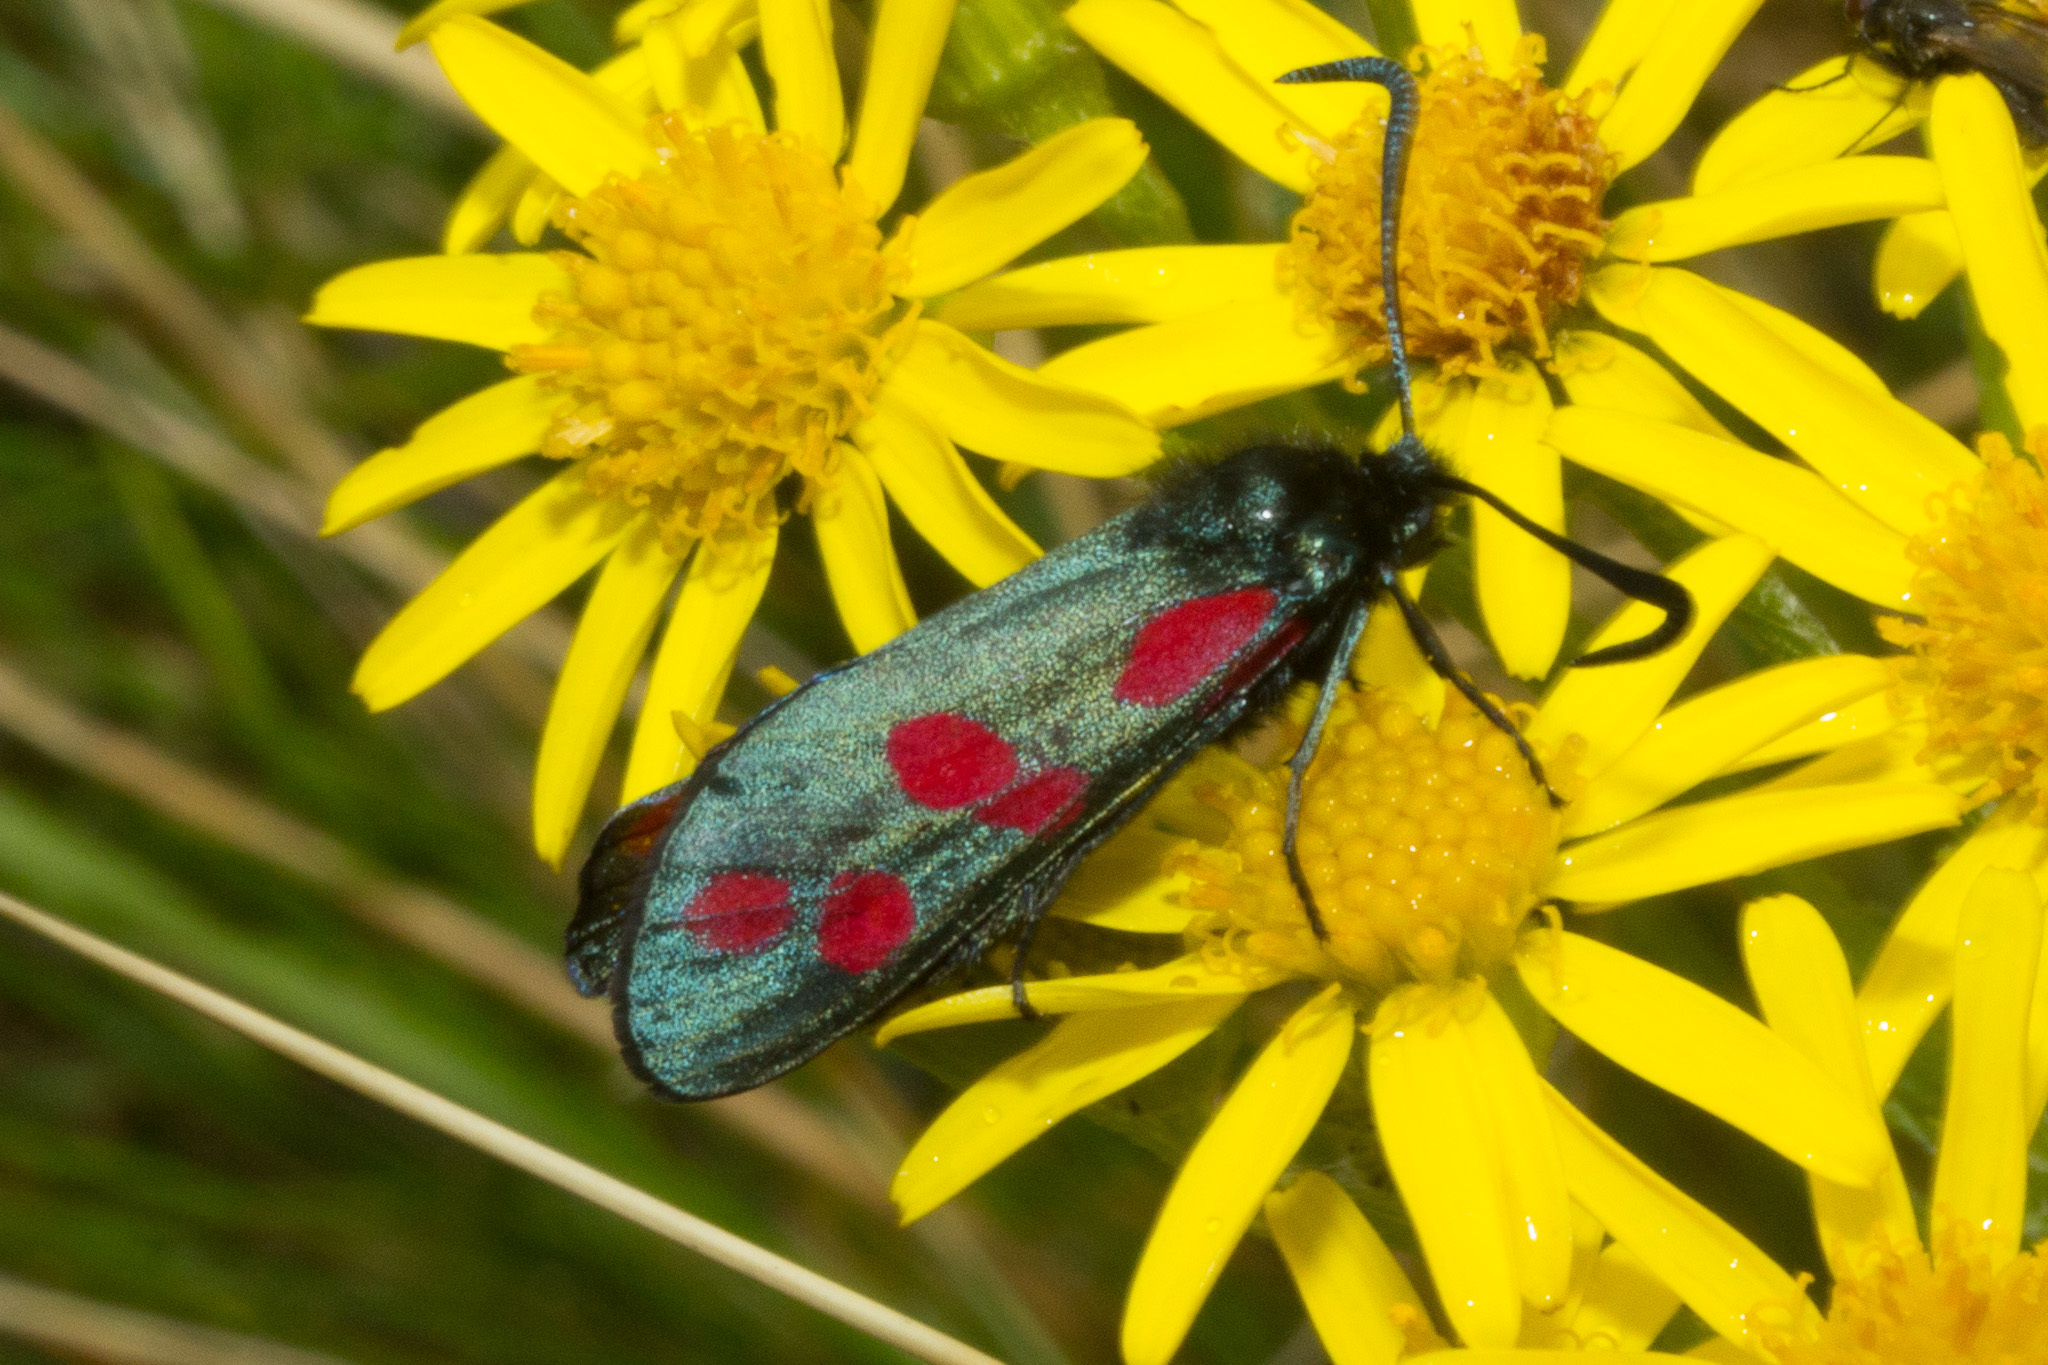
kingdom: Animalia
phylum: Arthropoda
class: Insecta
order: Lepidoptera
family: Zygaenidae
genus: Zygaena
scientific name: Zygaena filipendulae
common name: Six-spot burnet
